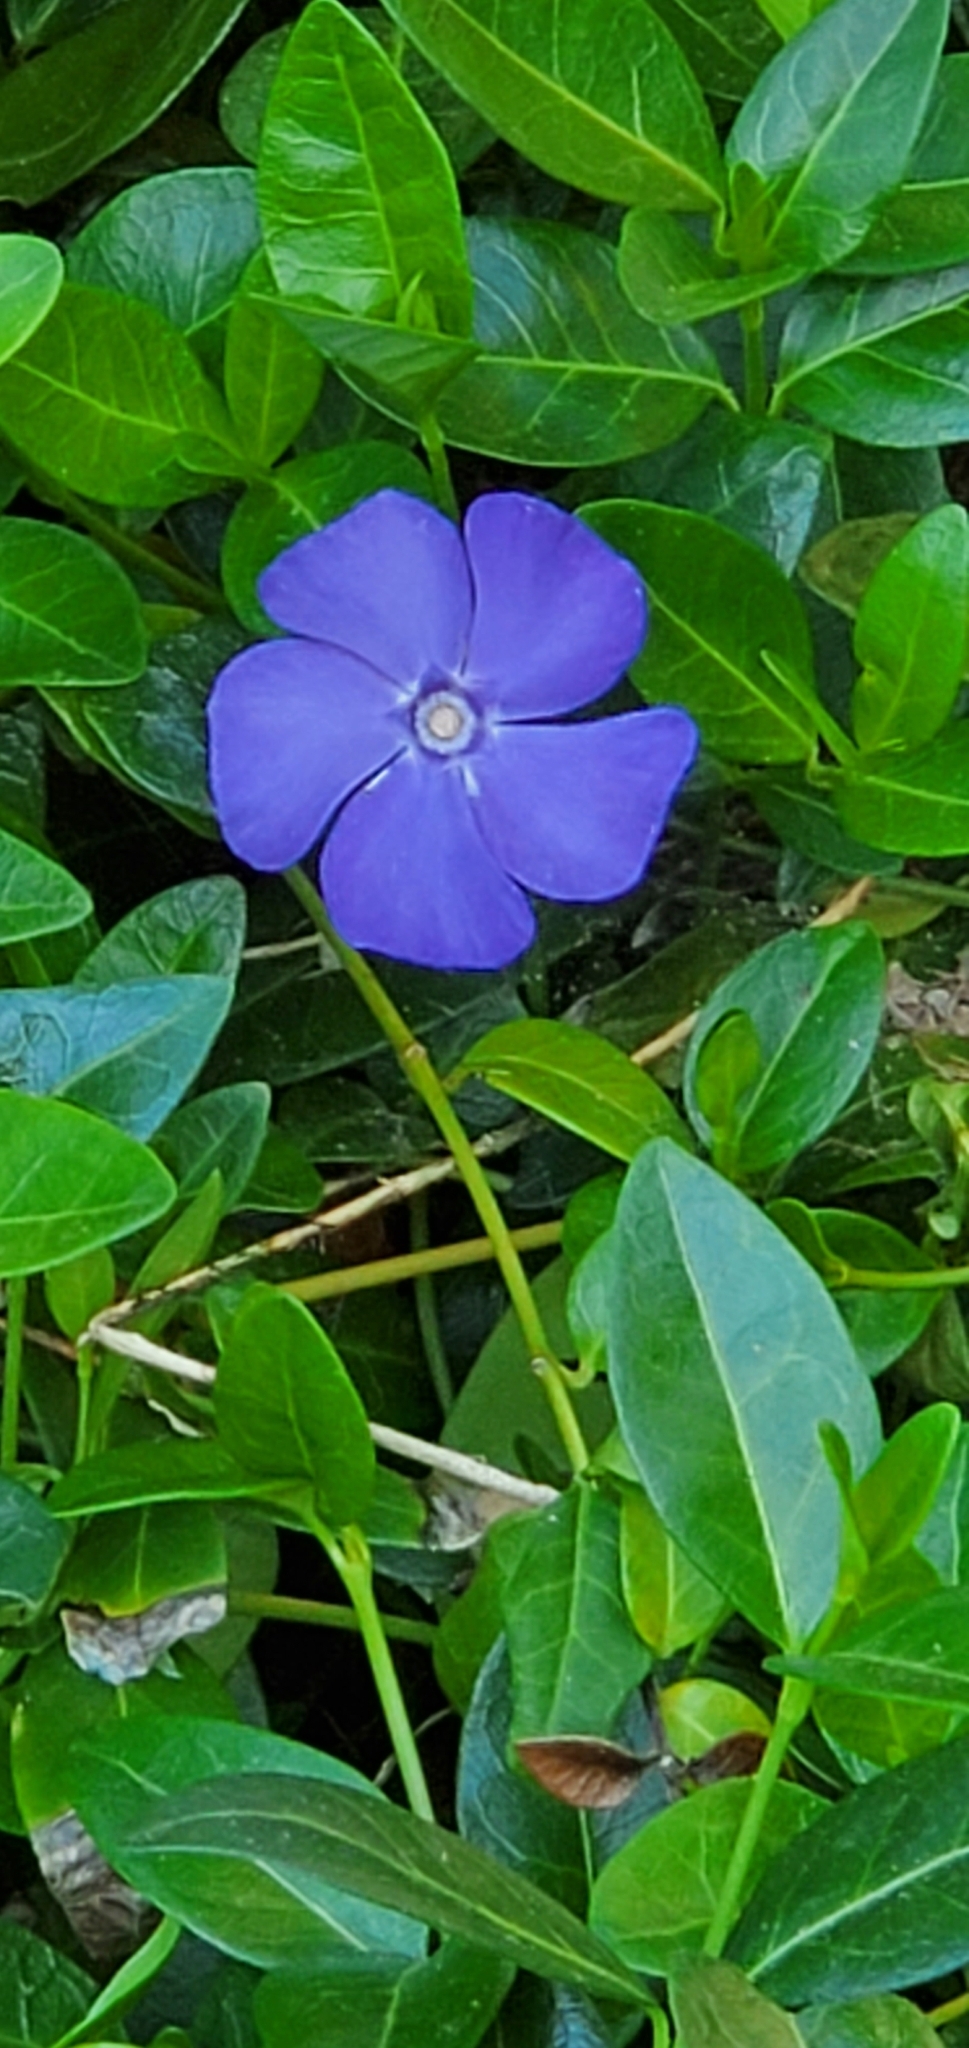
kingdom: Plantae
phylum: Tracheophyta
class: Magnoliopsida
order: Gentianales
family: Apocynaceae
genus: Vinca
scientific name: Vinca minor
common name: Lesser periwinkle
